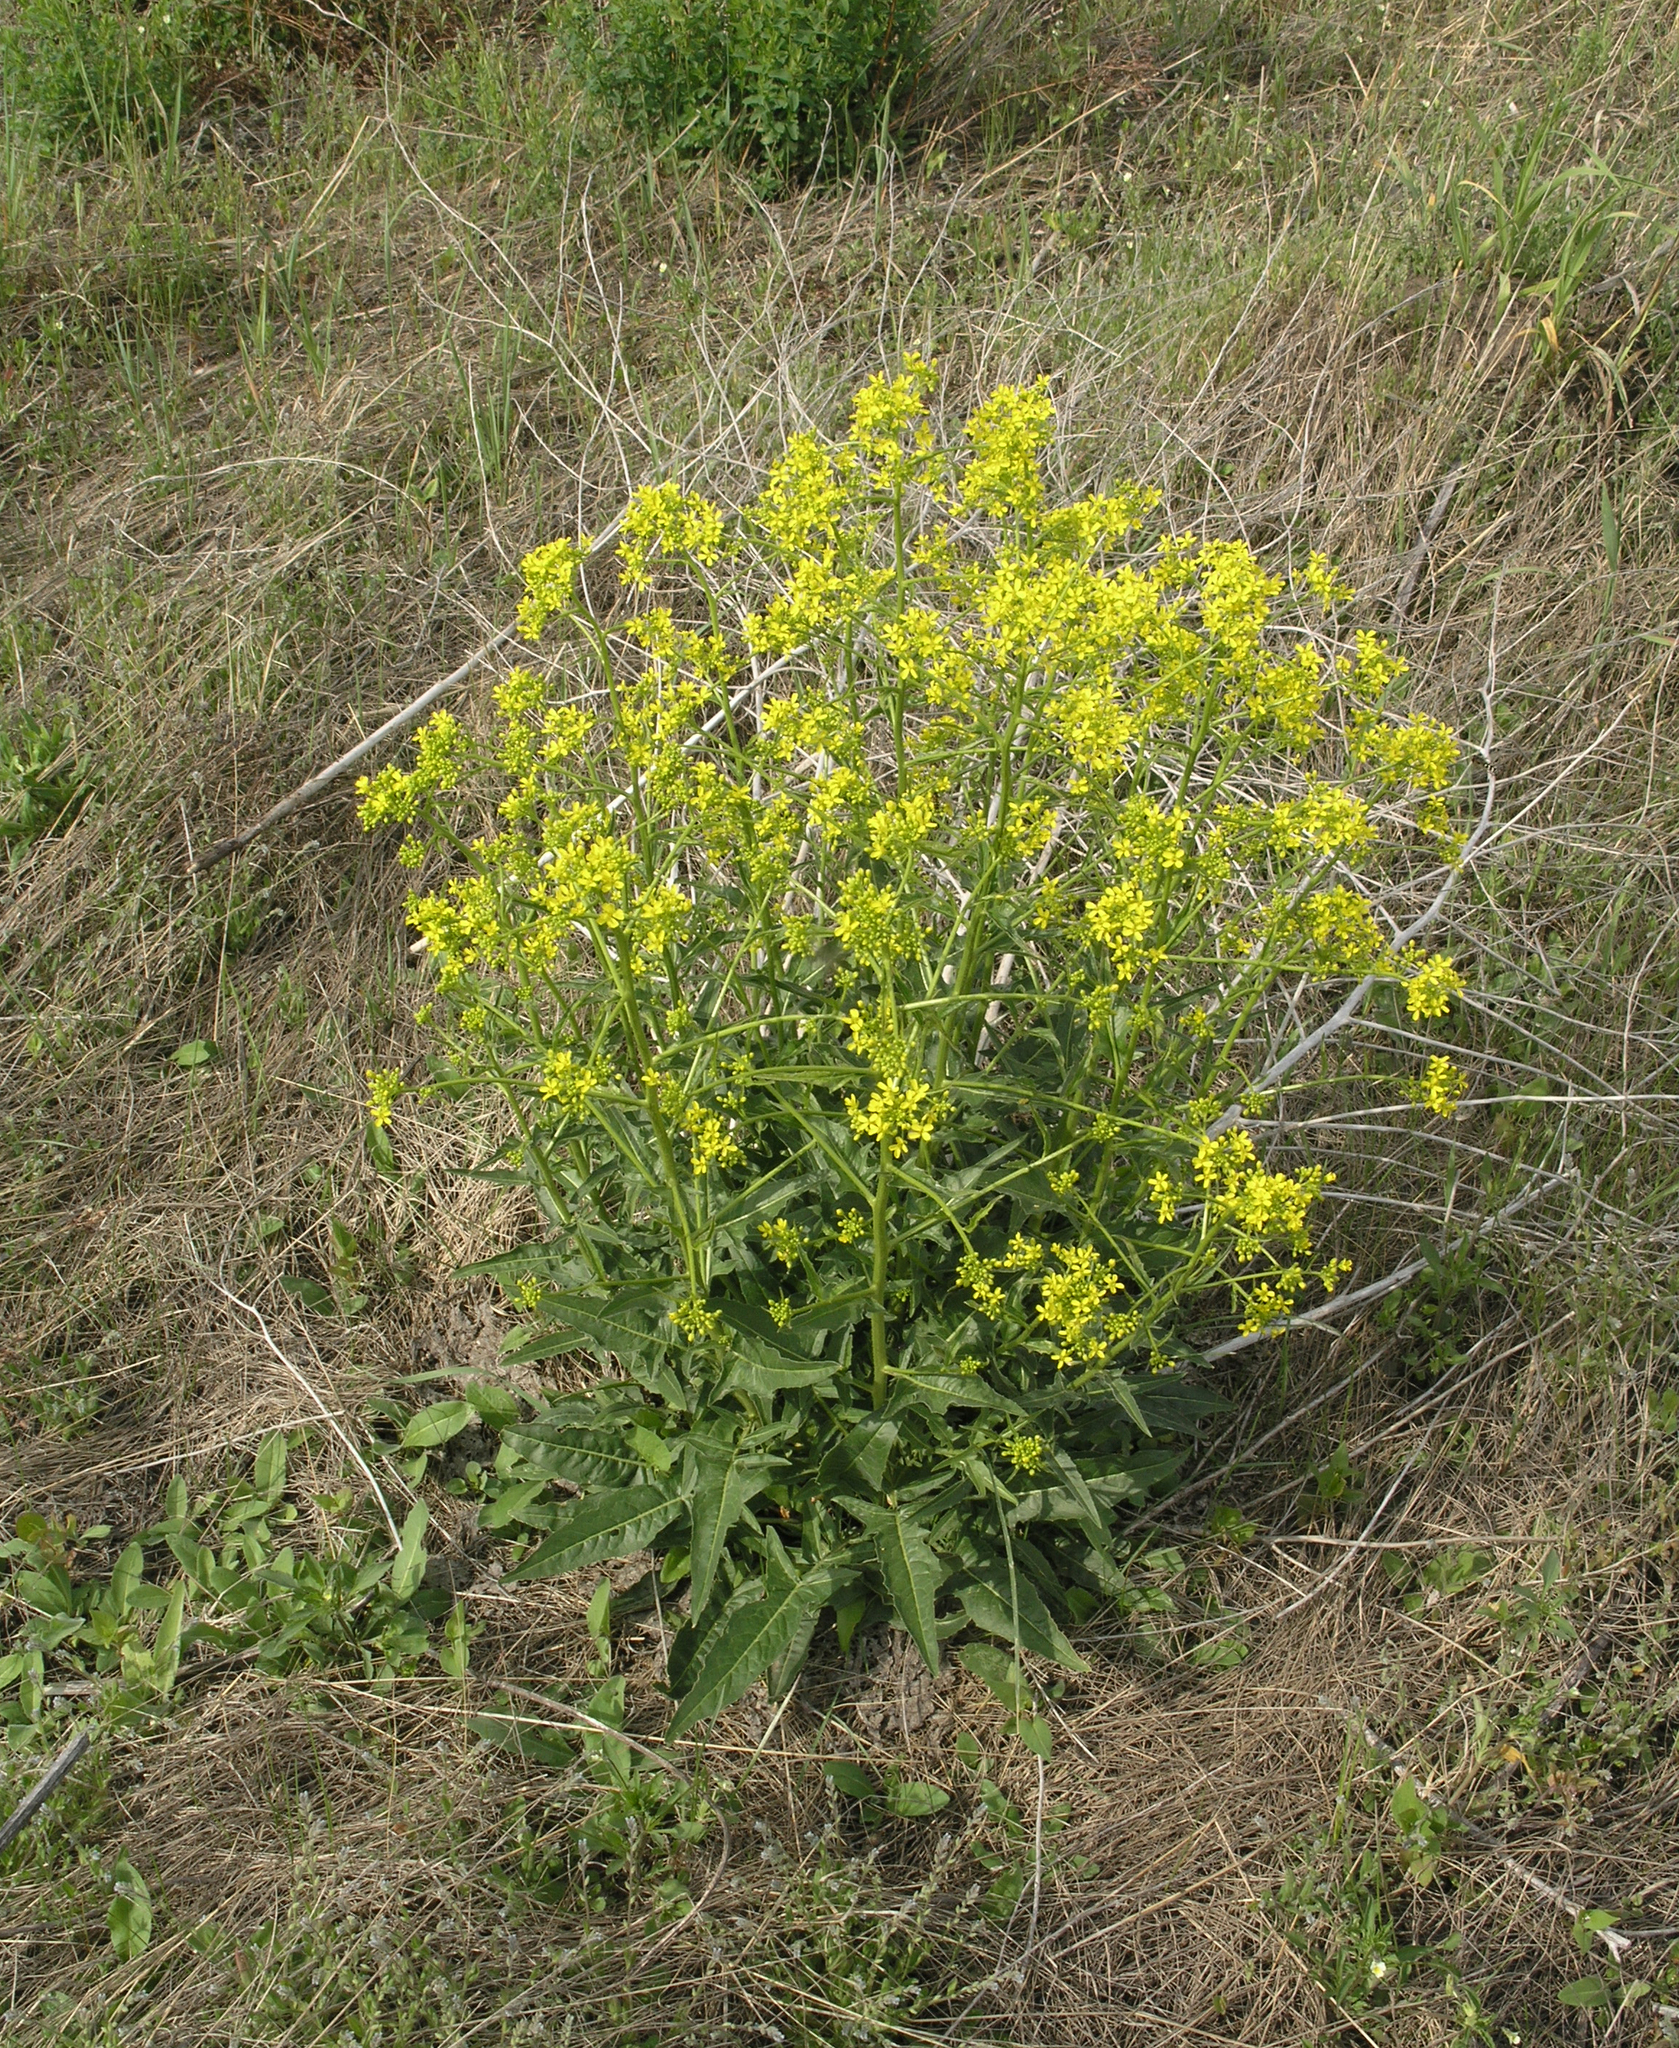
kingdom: Plantae
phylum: Tracheophyta
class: Magnoliopsida
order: Brassicales
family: Brassicaceae
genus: Bunias
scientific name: Bunias orientalis
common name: Warty-cabbage
